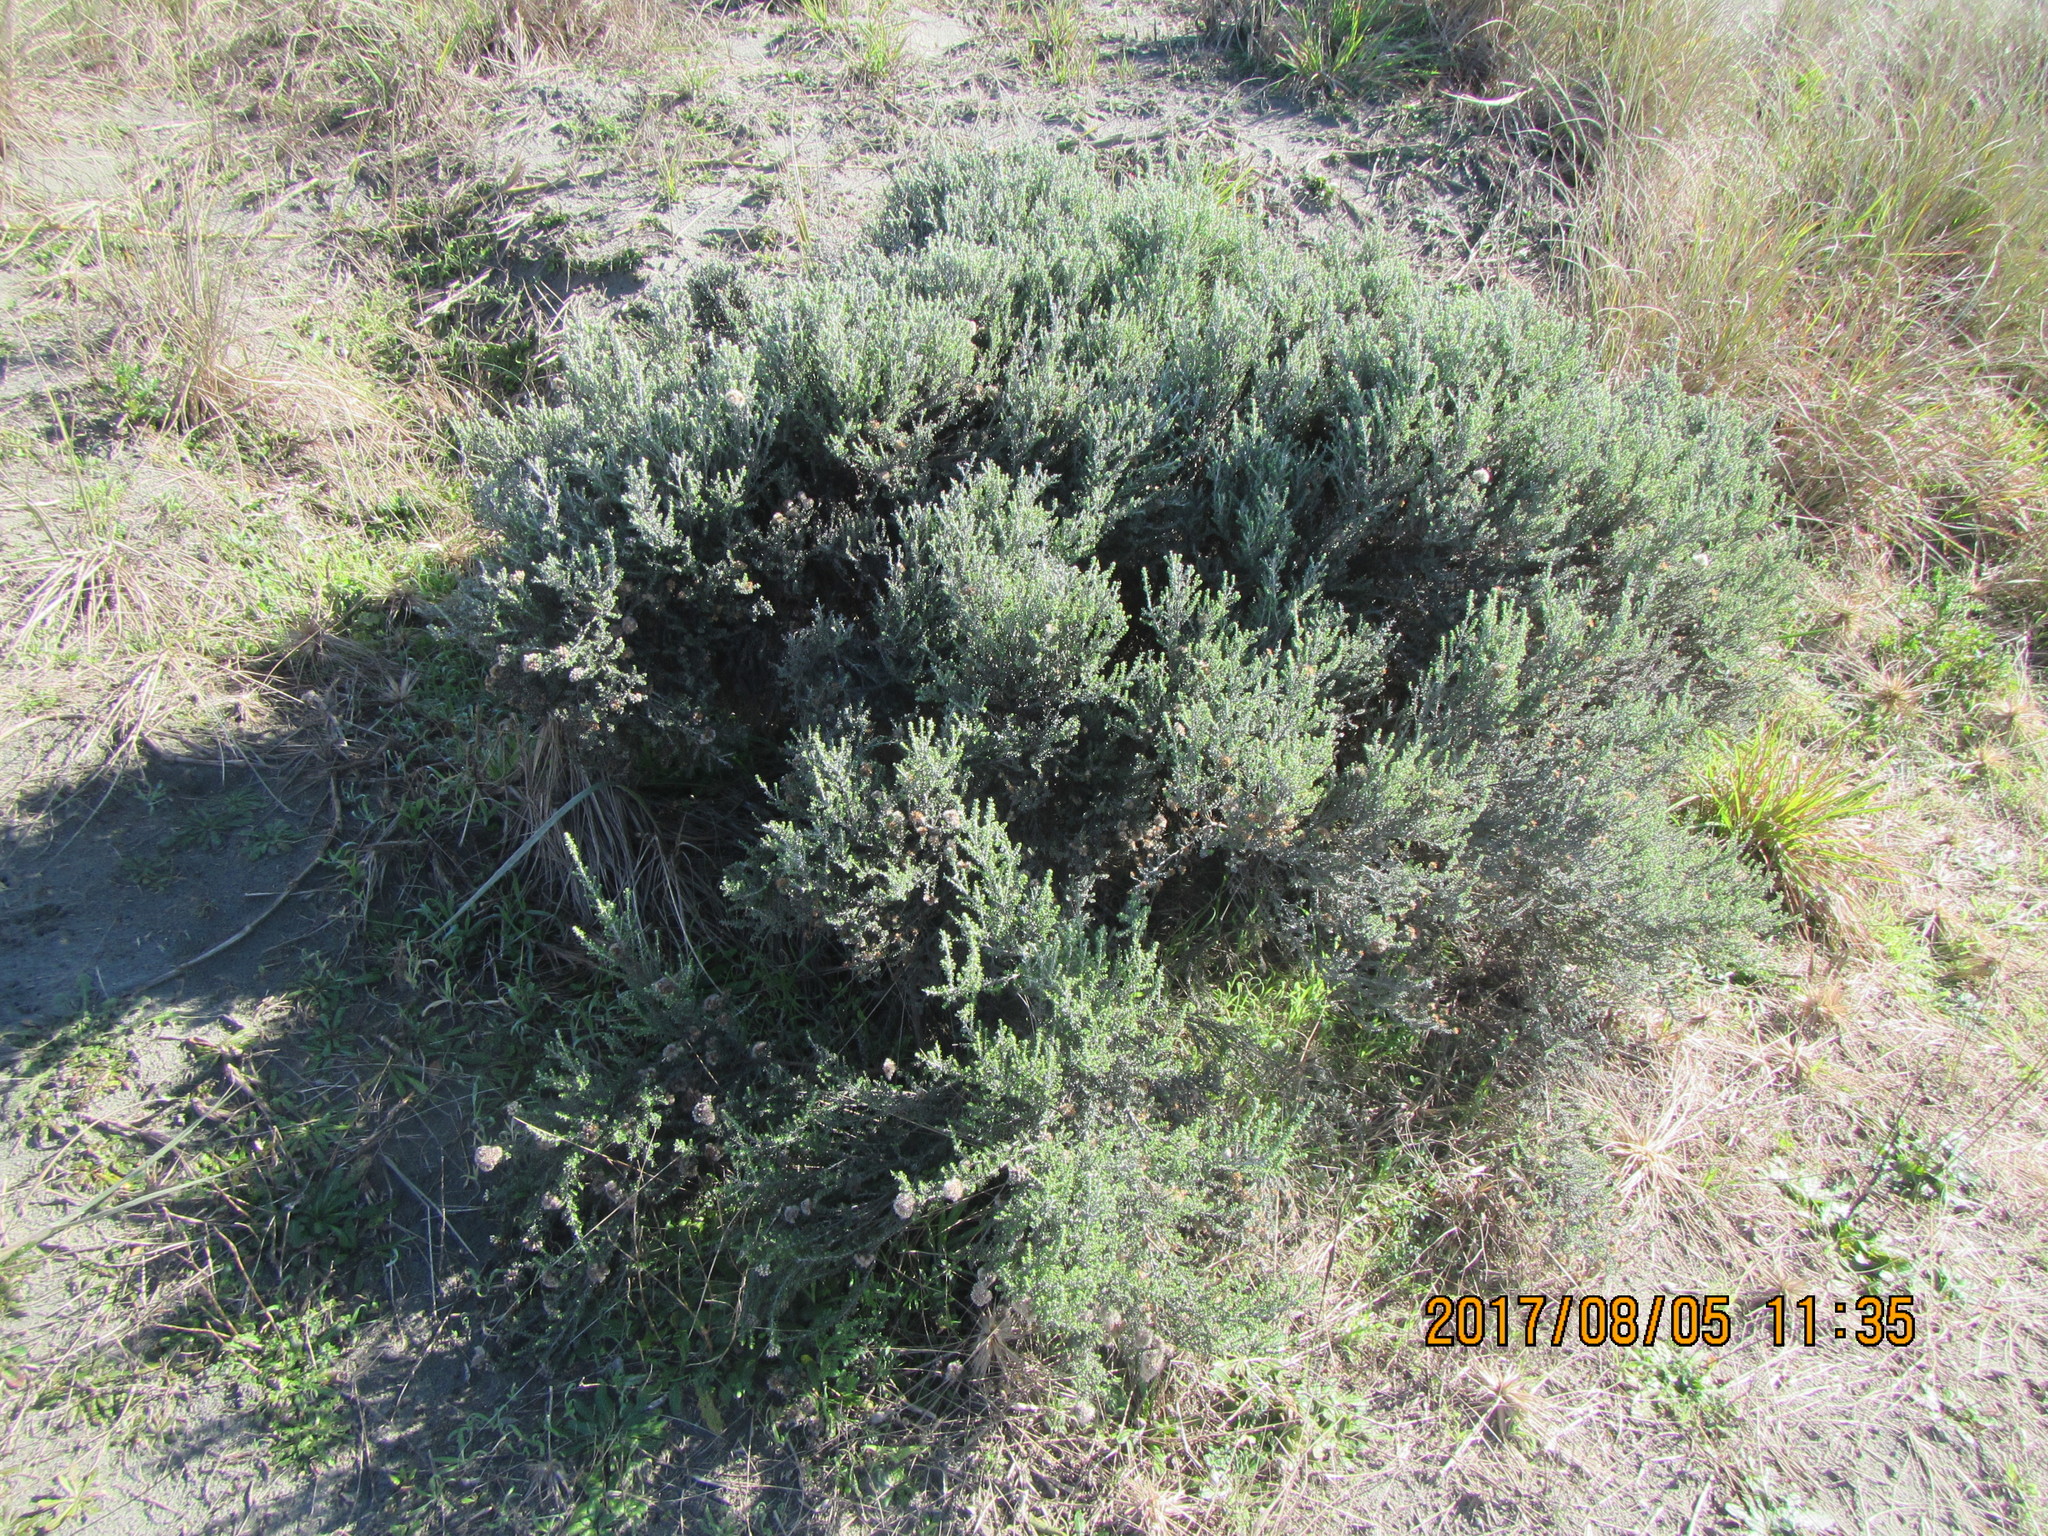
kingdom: Plantae
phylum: Tracheophyta
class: Magnoliopsida
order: Asterales
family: Asteraceae
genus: Ozothamnus
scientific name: Ozothamnus leptophyllus
